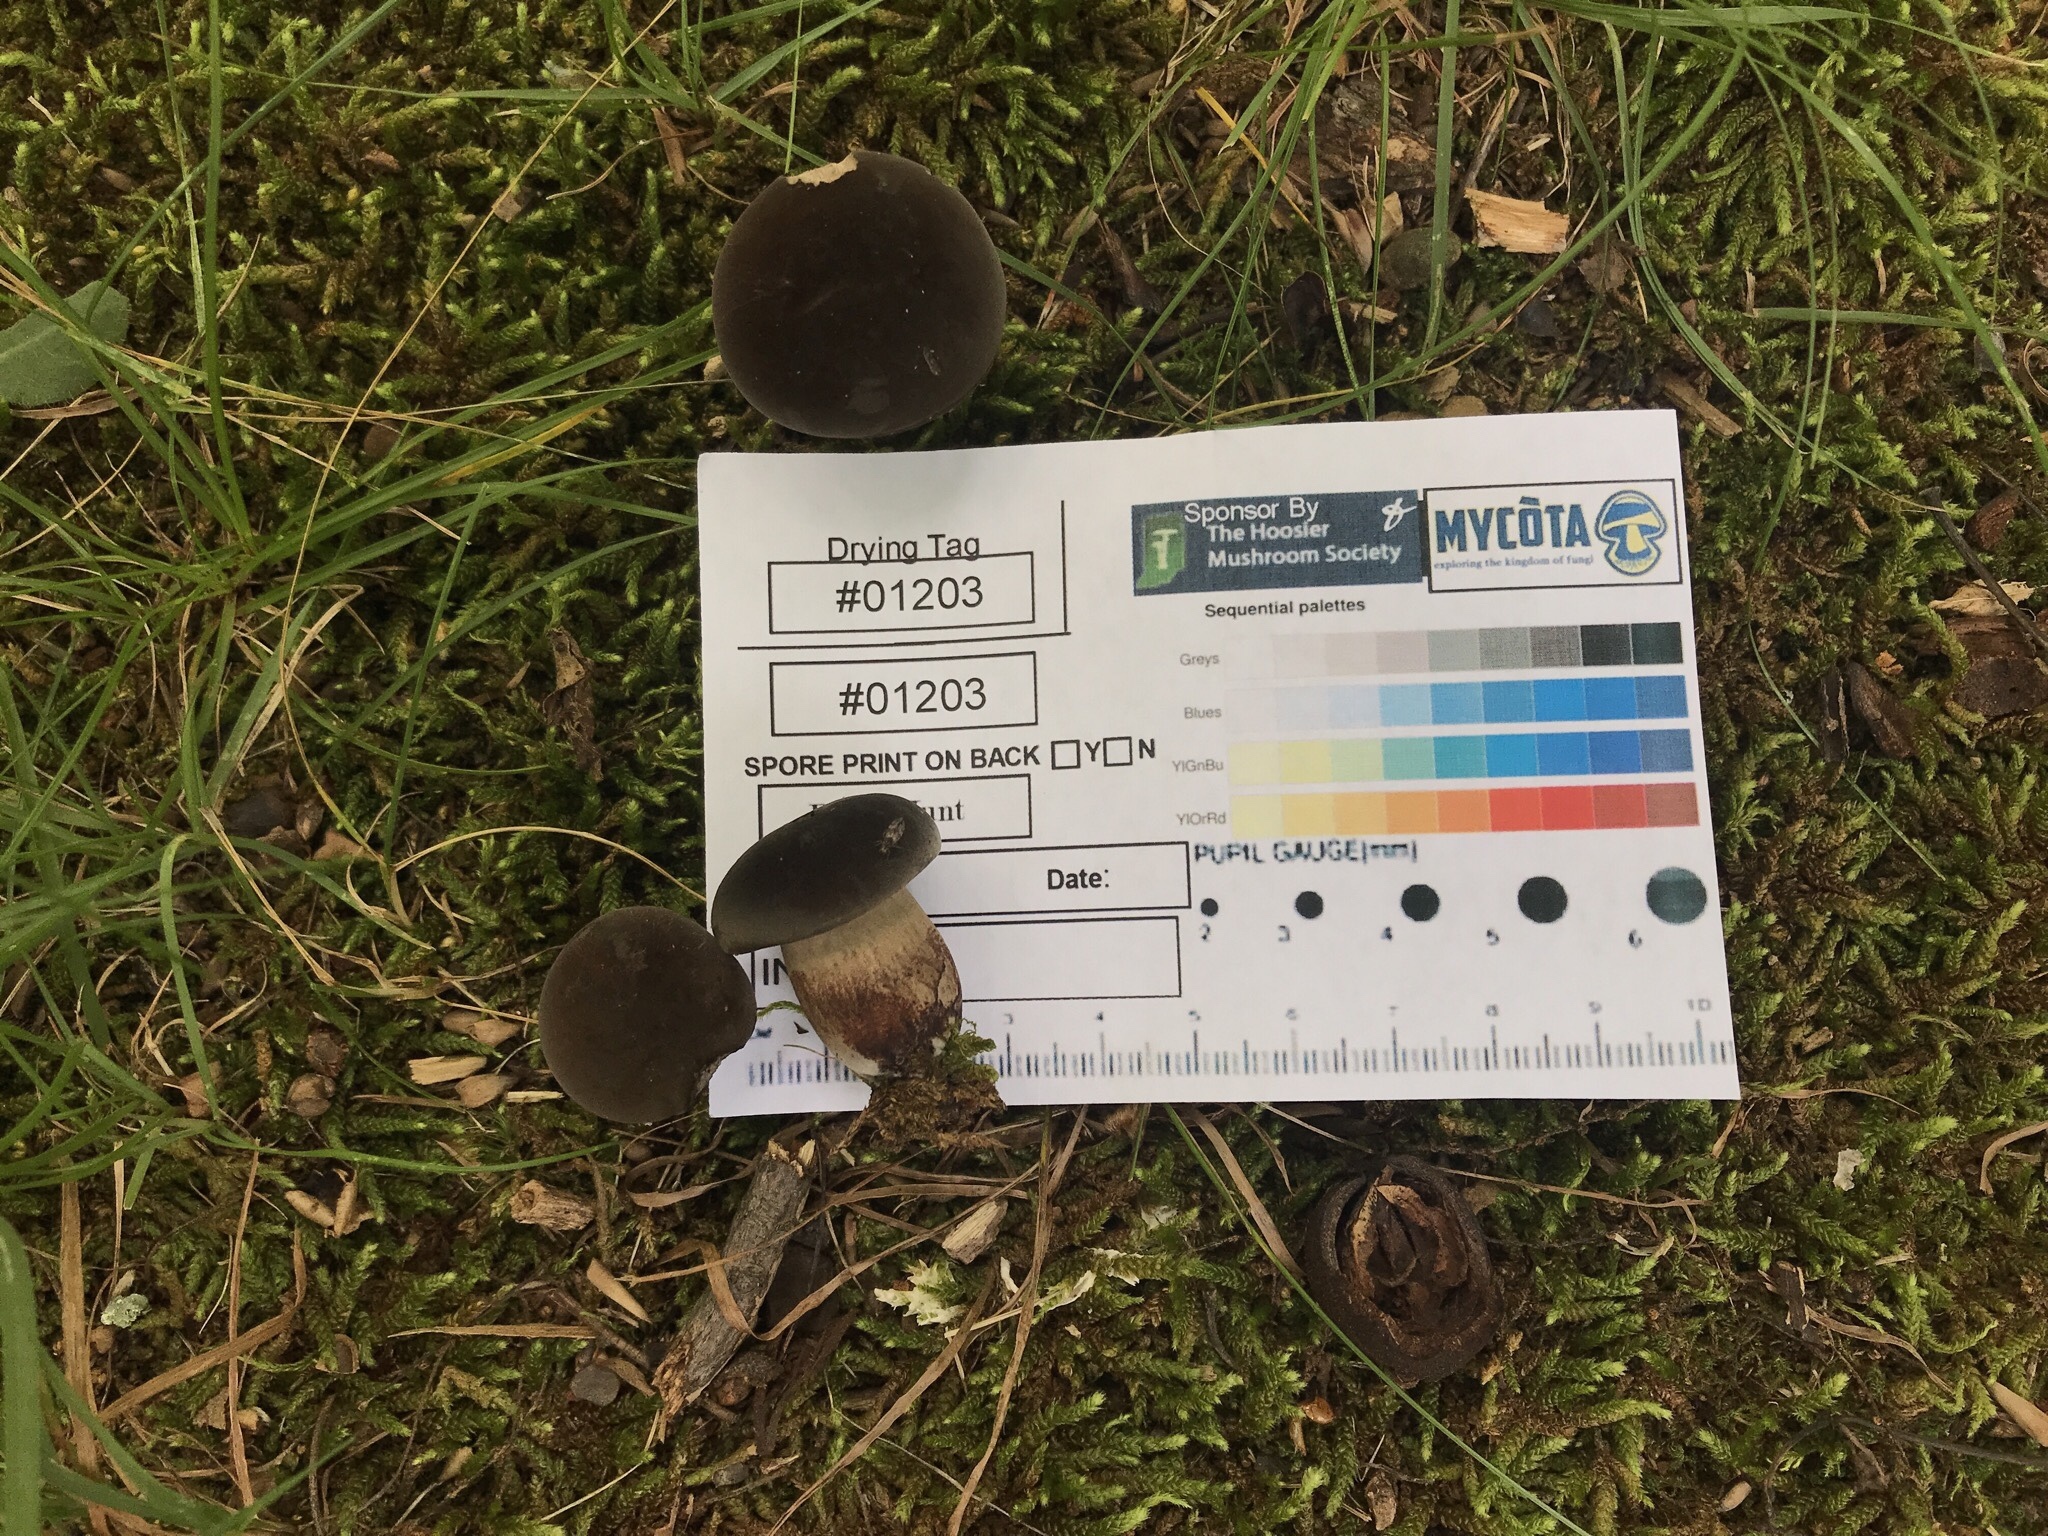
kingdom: Fungi
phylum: Basidiomycota
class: Agaricomycetes
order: Boletales
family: Boletaceae
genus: Tylopilus
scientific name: Tylopilus alboater
